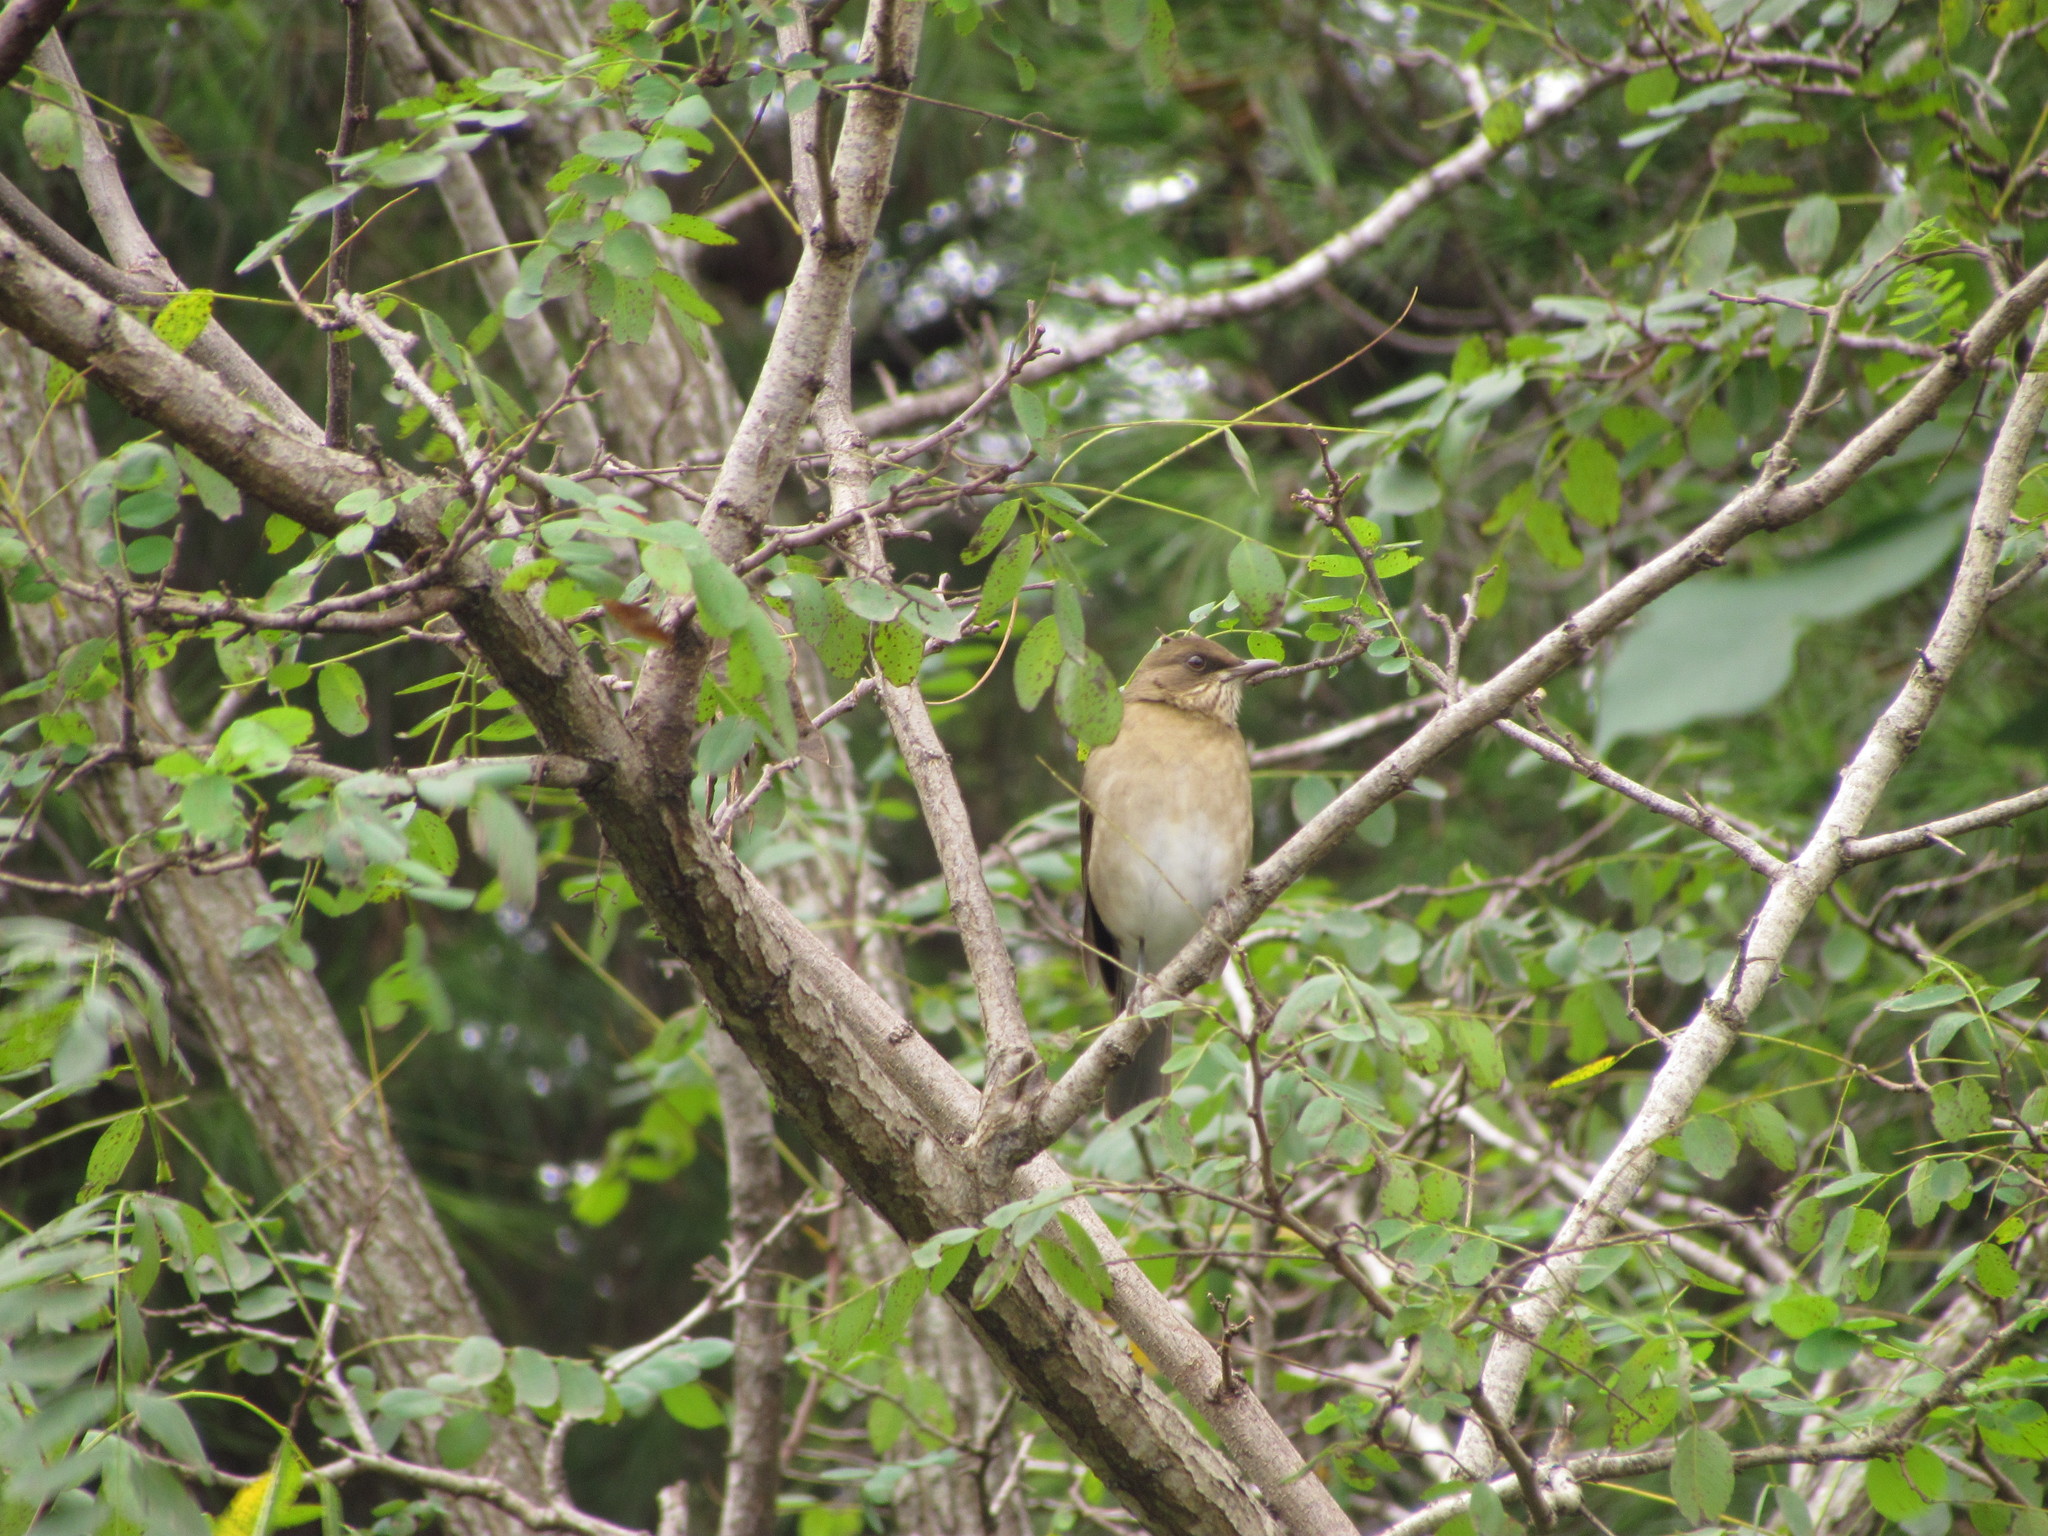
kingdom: Animalia
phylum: Chordata
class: Aves
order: Passeriformes
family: Turdidae
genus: Turdus
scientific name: Turdus amaurochalinus
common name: Creamy-bellied thrush
